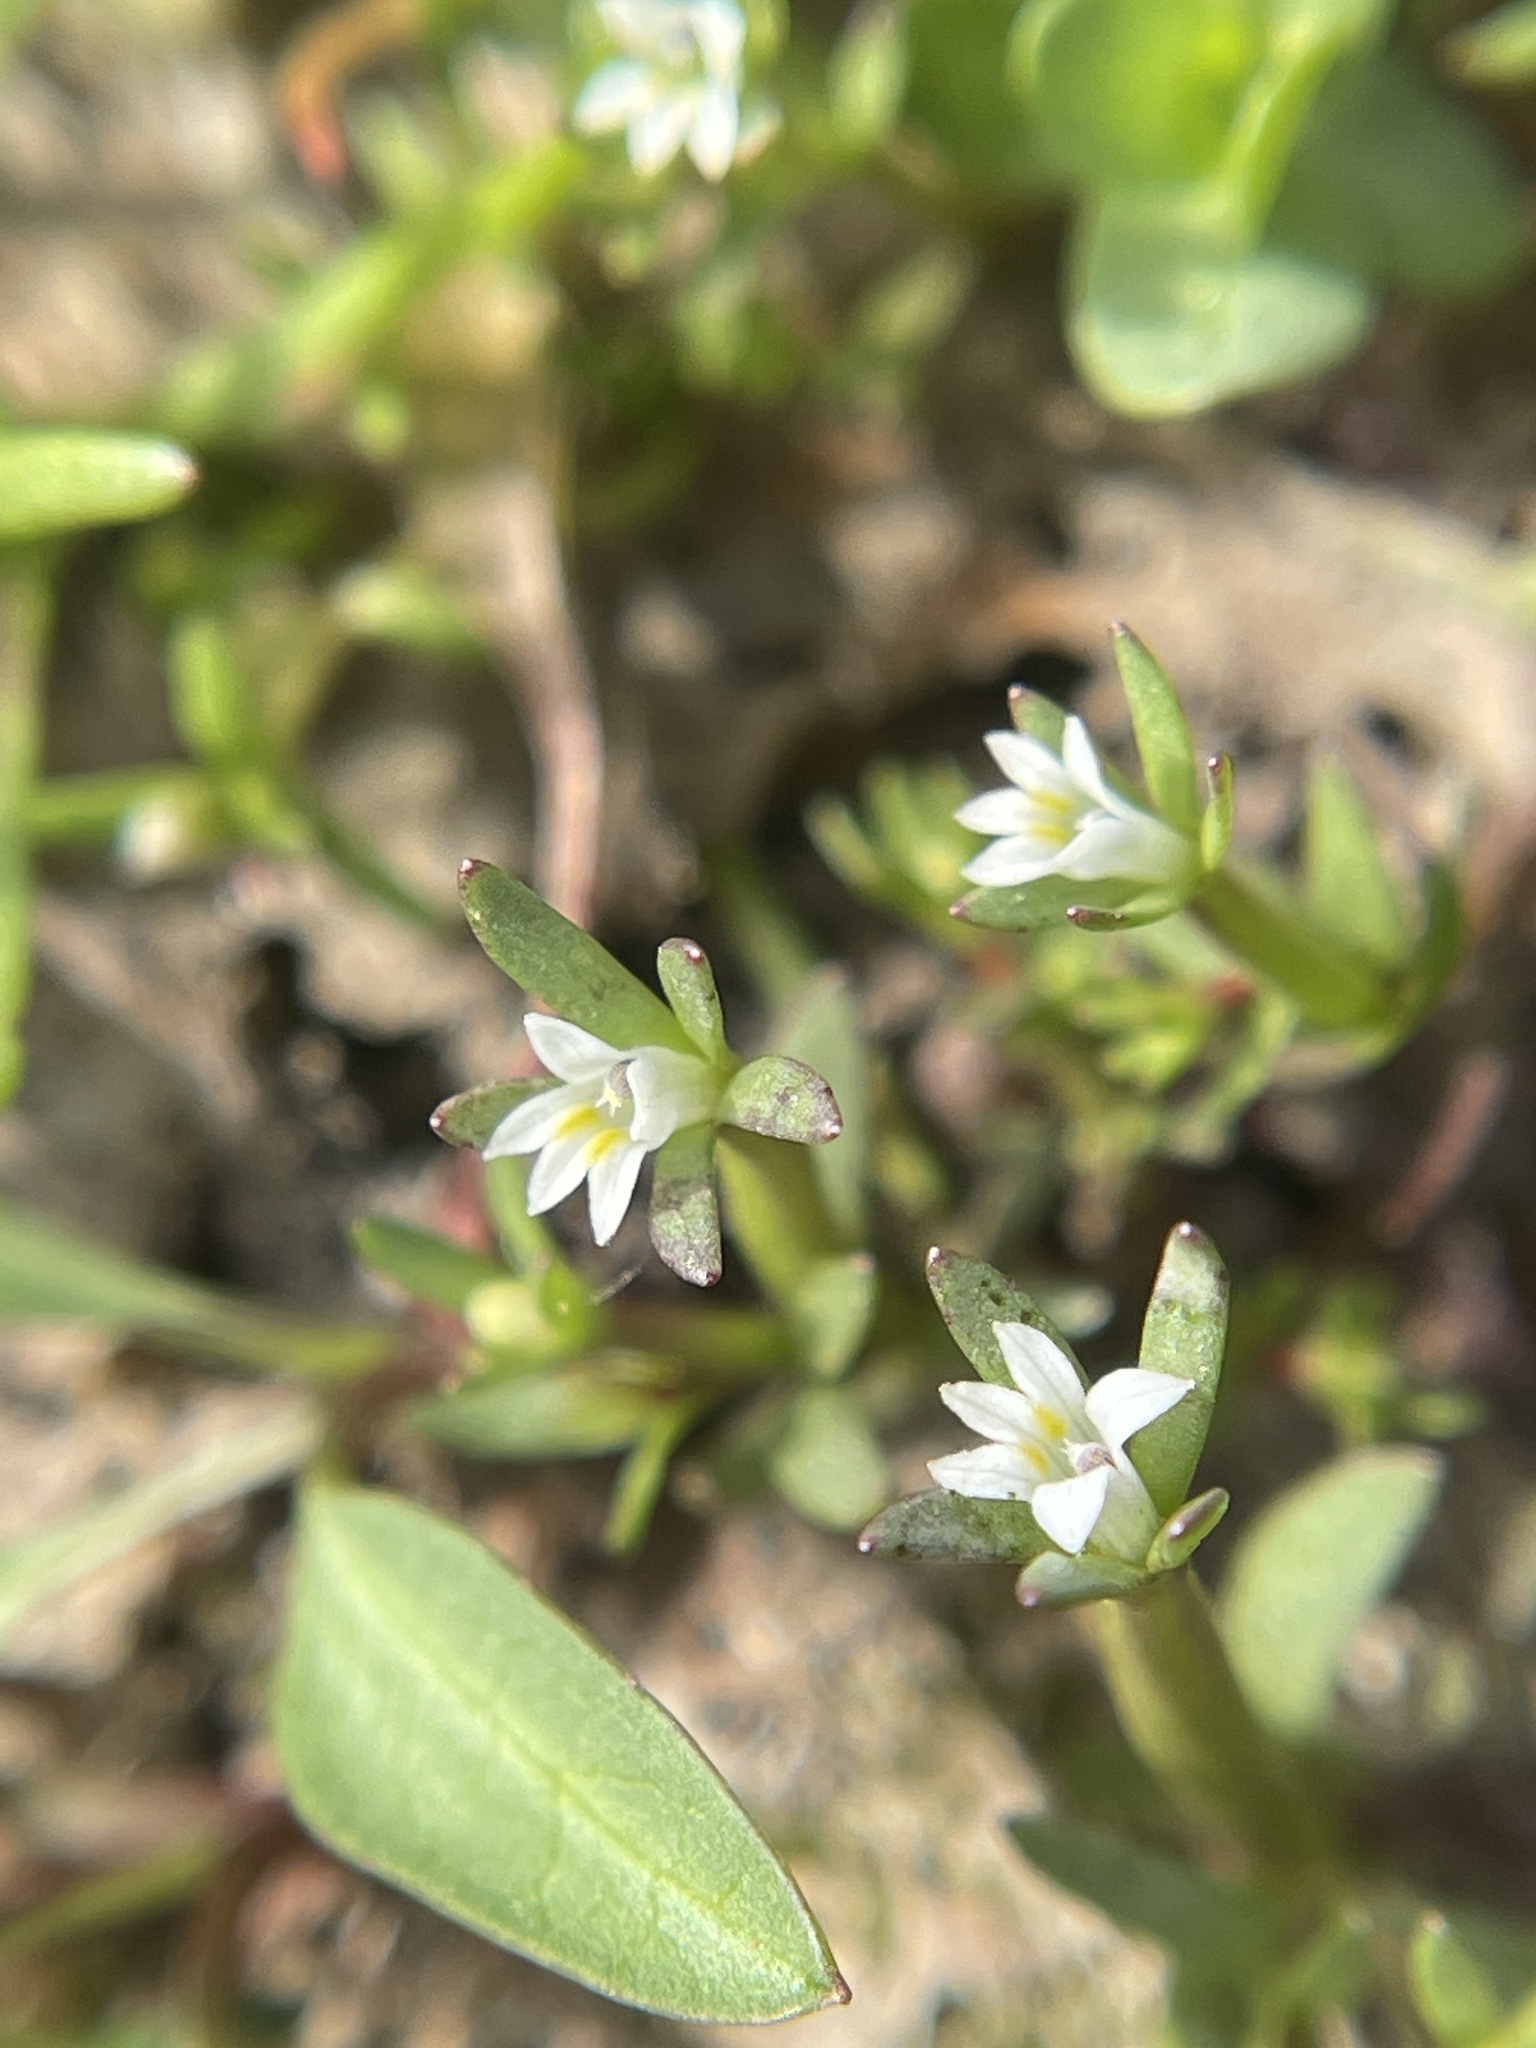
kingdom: Plantae
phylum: Tracheophyta
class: Magnoliopsida
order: Asterales
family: Campanulaceae
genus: Downingia
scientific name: Downingia pusilla
